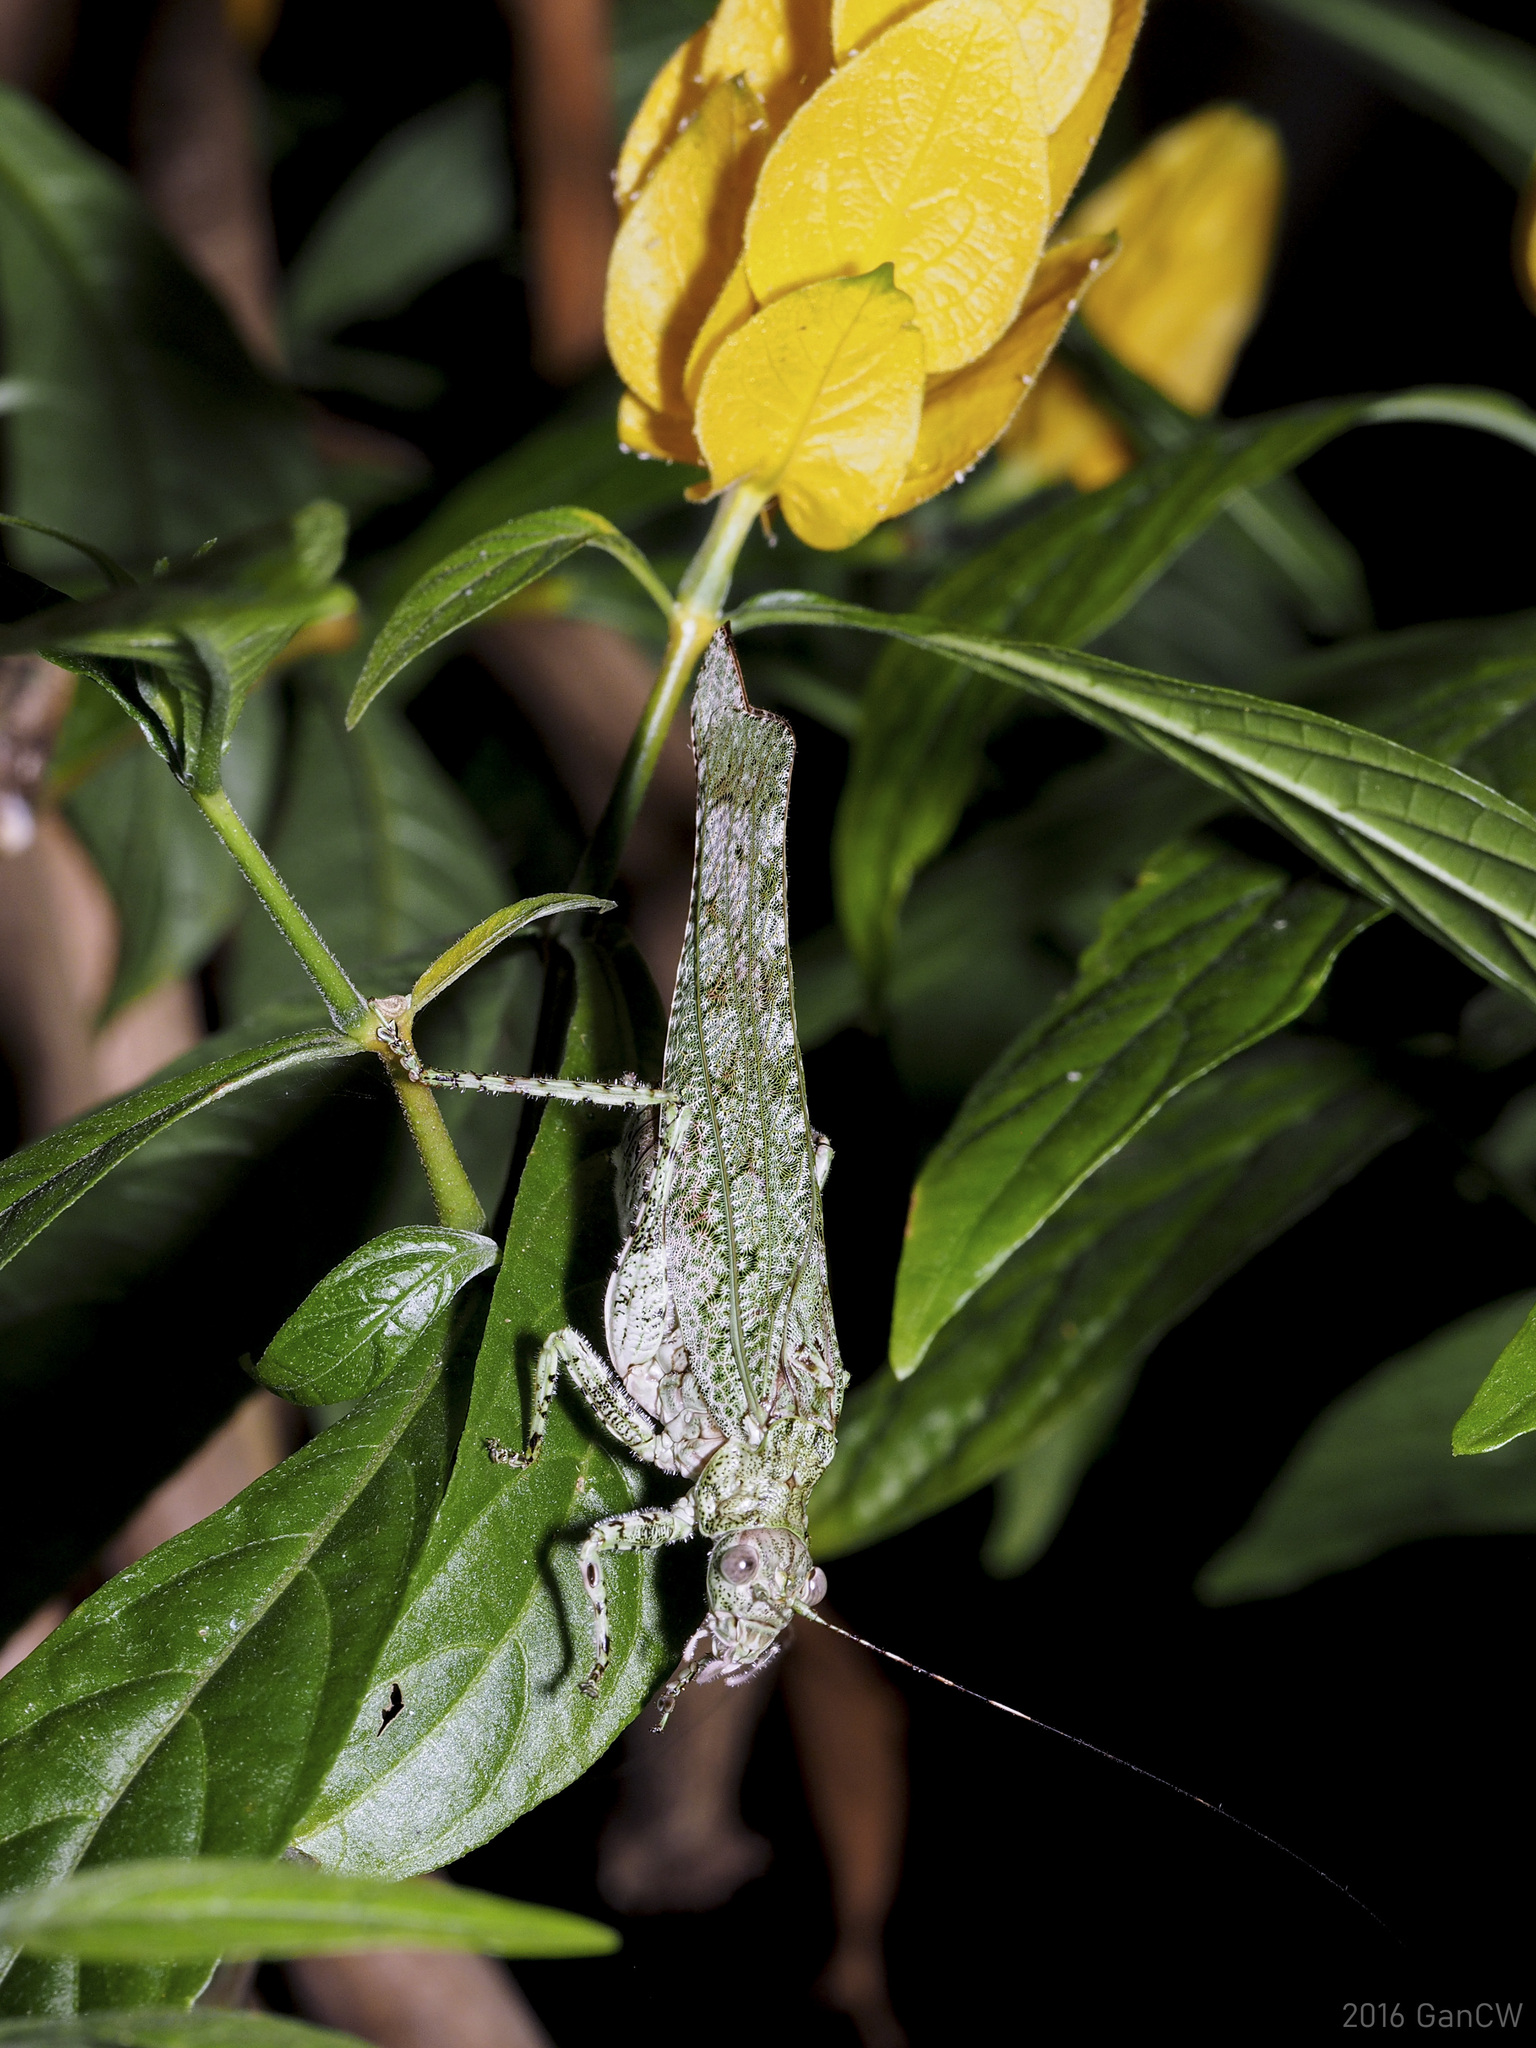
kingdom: Animalia
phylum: Arthropoda
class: Insecta
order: Orthoptera
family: Tettigoniidae
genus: Zulpha
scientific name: Zulpha perlaria
